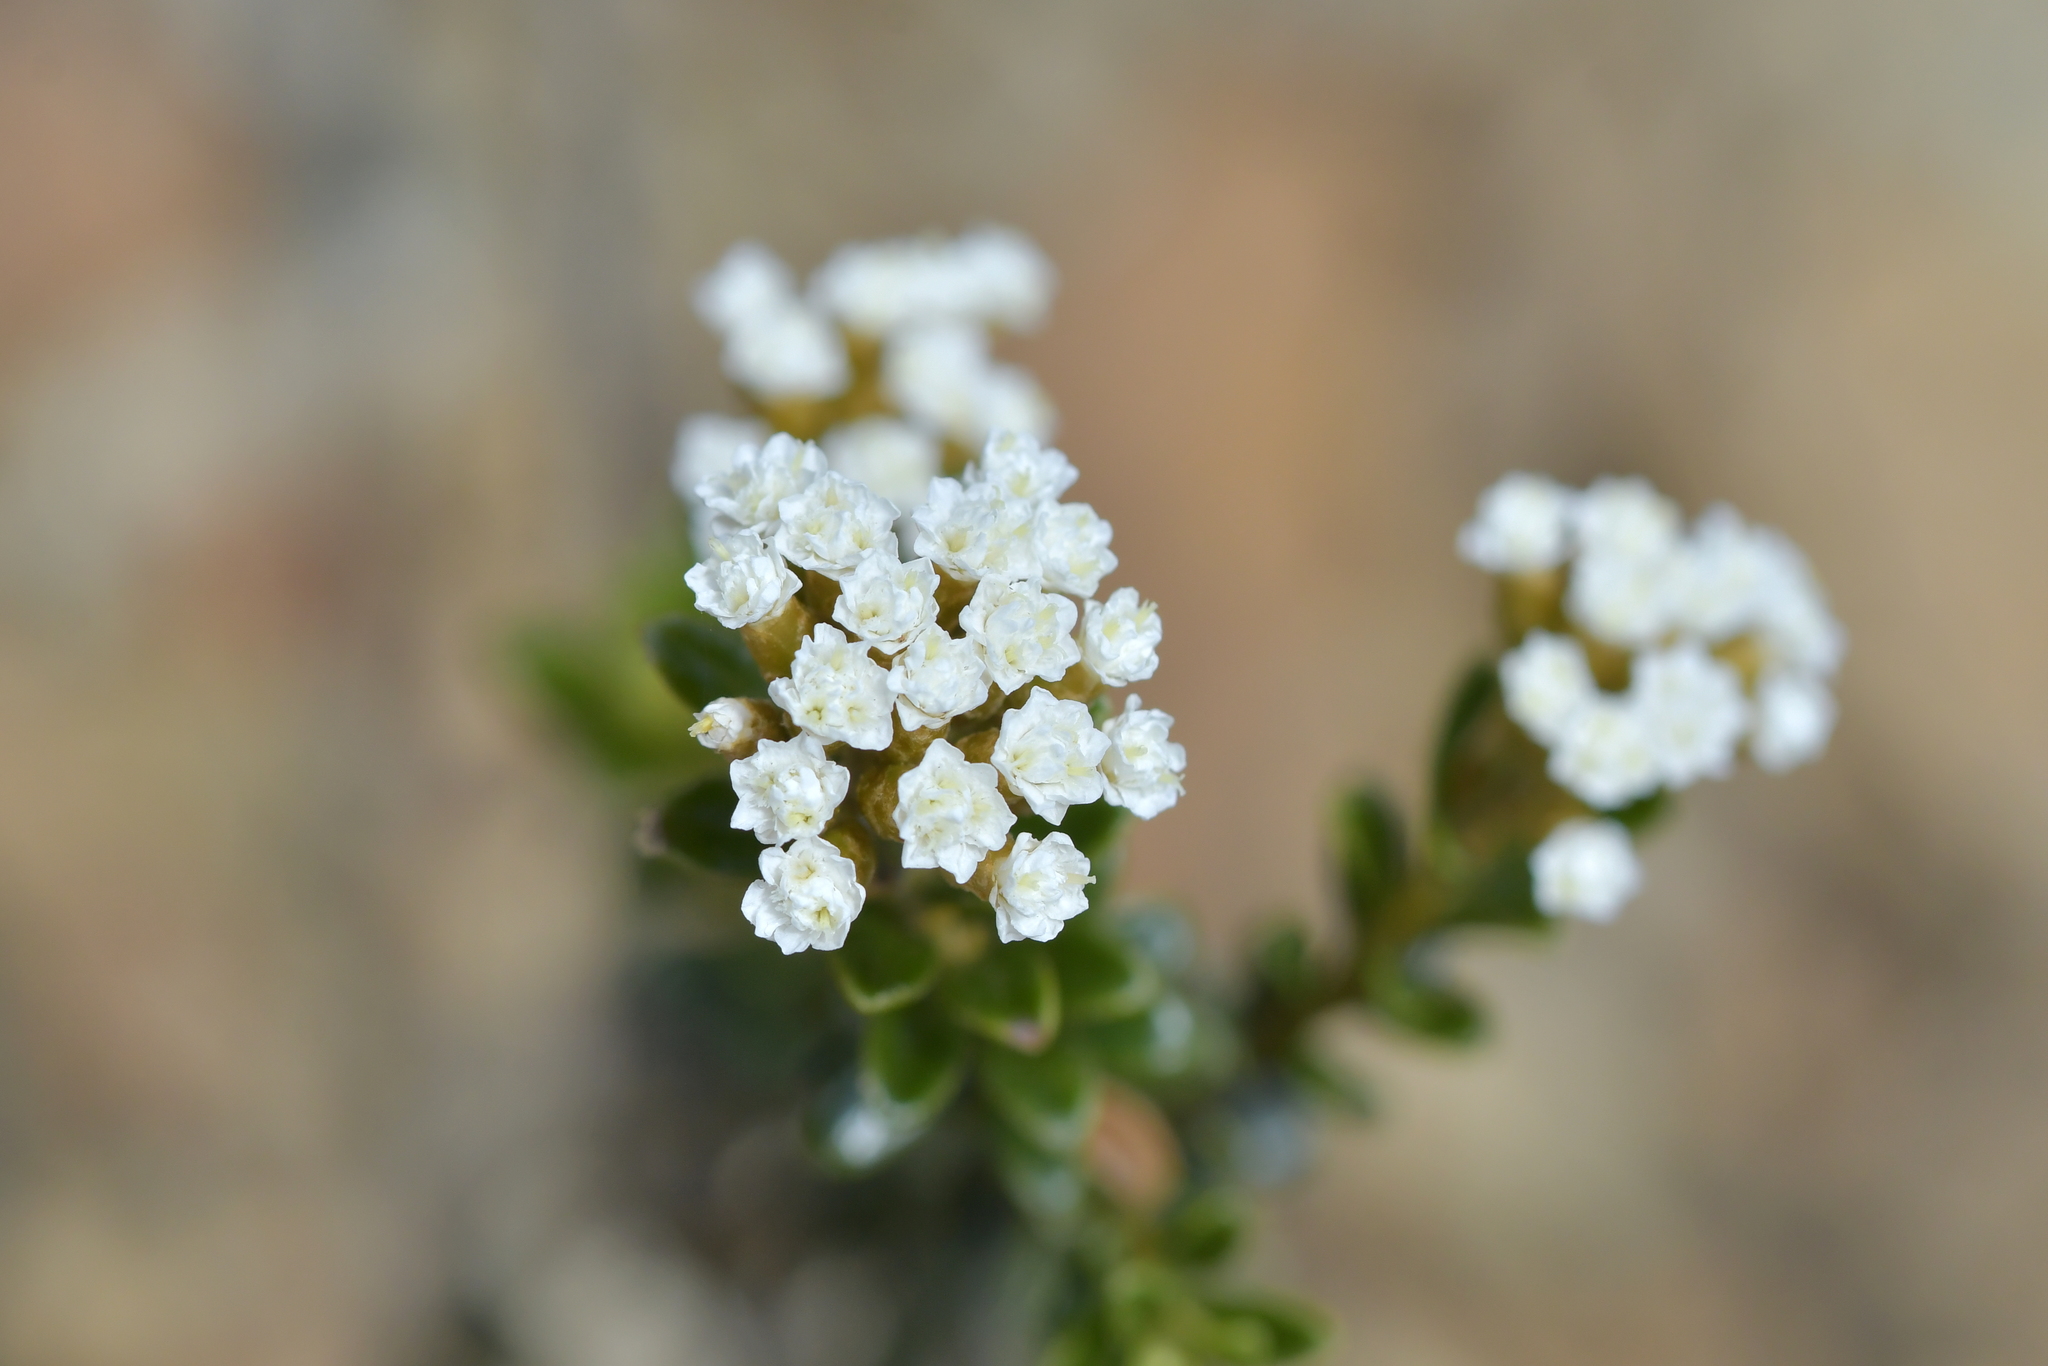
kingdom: Plantae
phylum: Tracheophyta
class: Magnoliopsida
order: Asterales
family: Asteraceae
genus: Ozothamnus
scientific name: Ozothamnus leptophyllus
